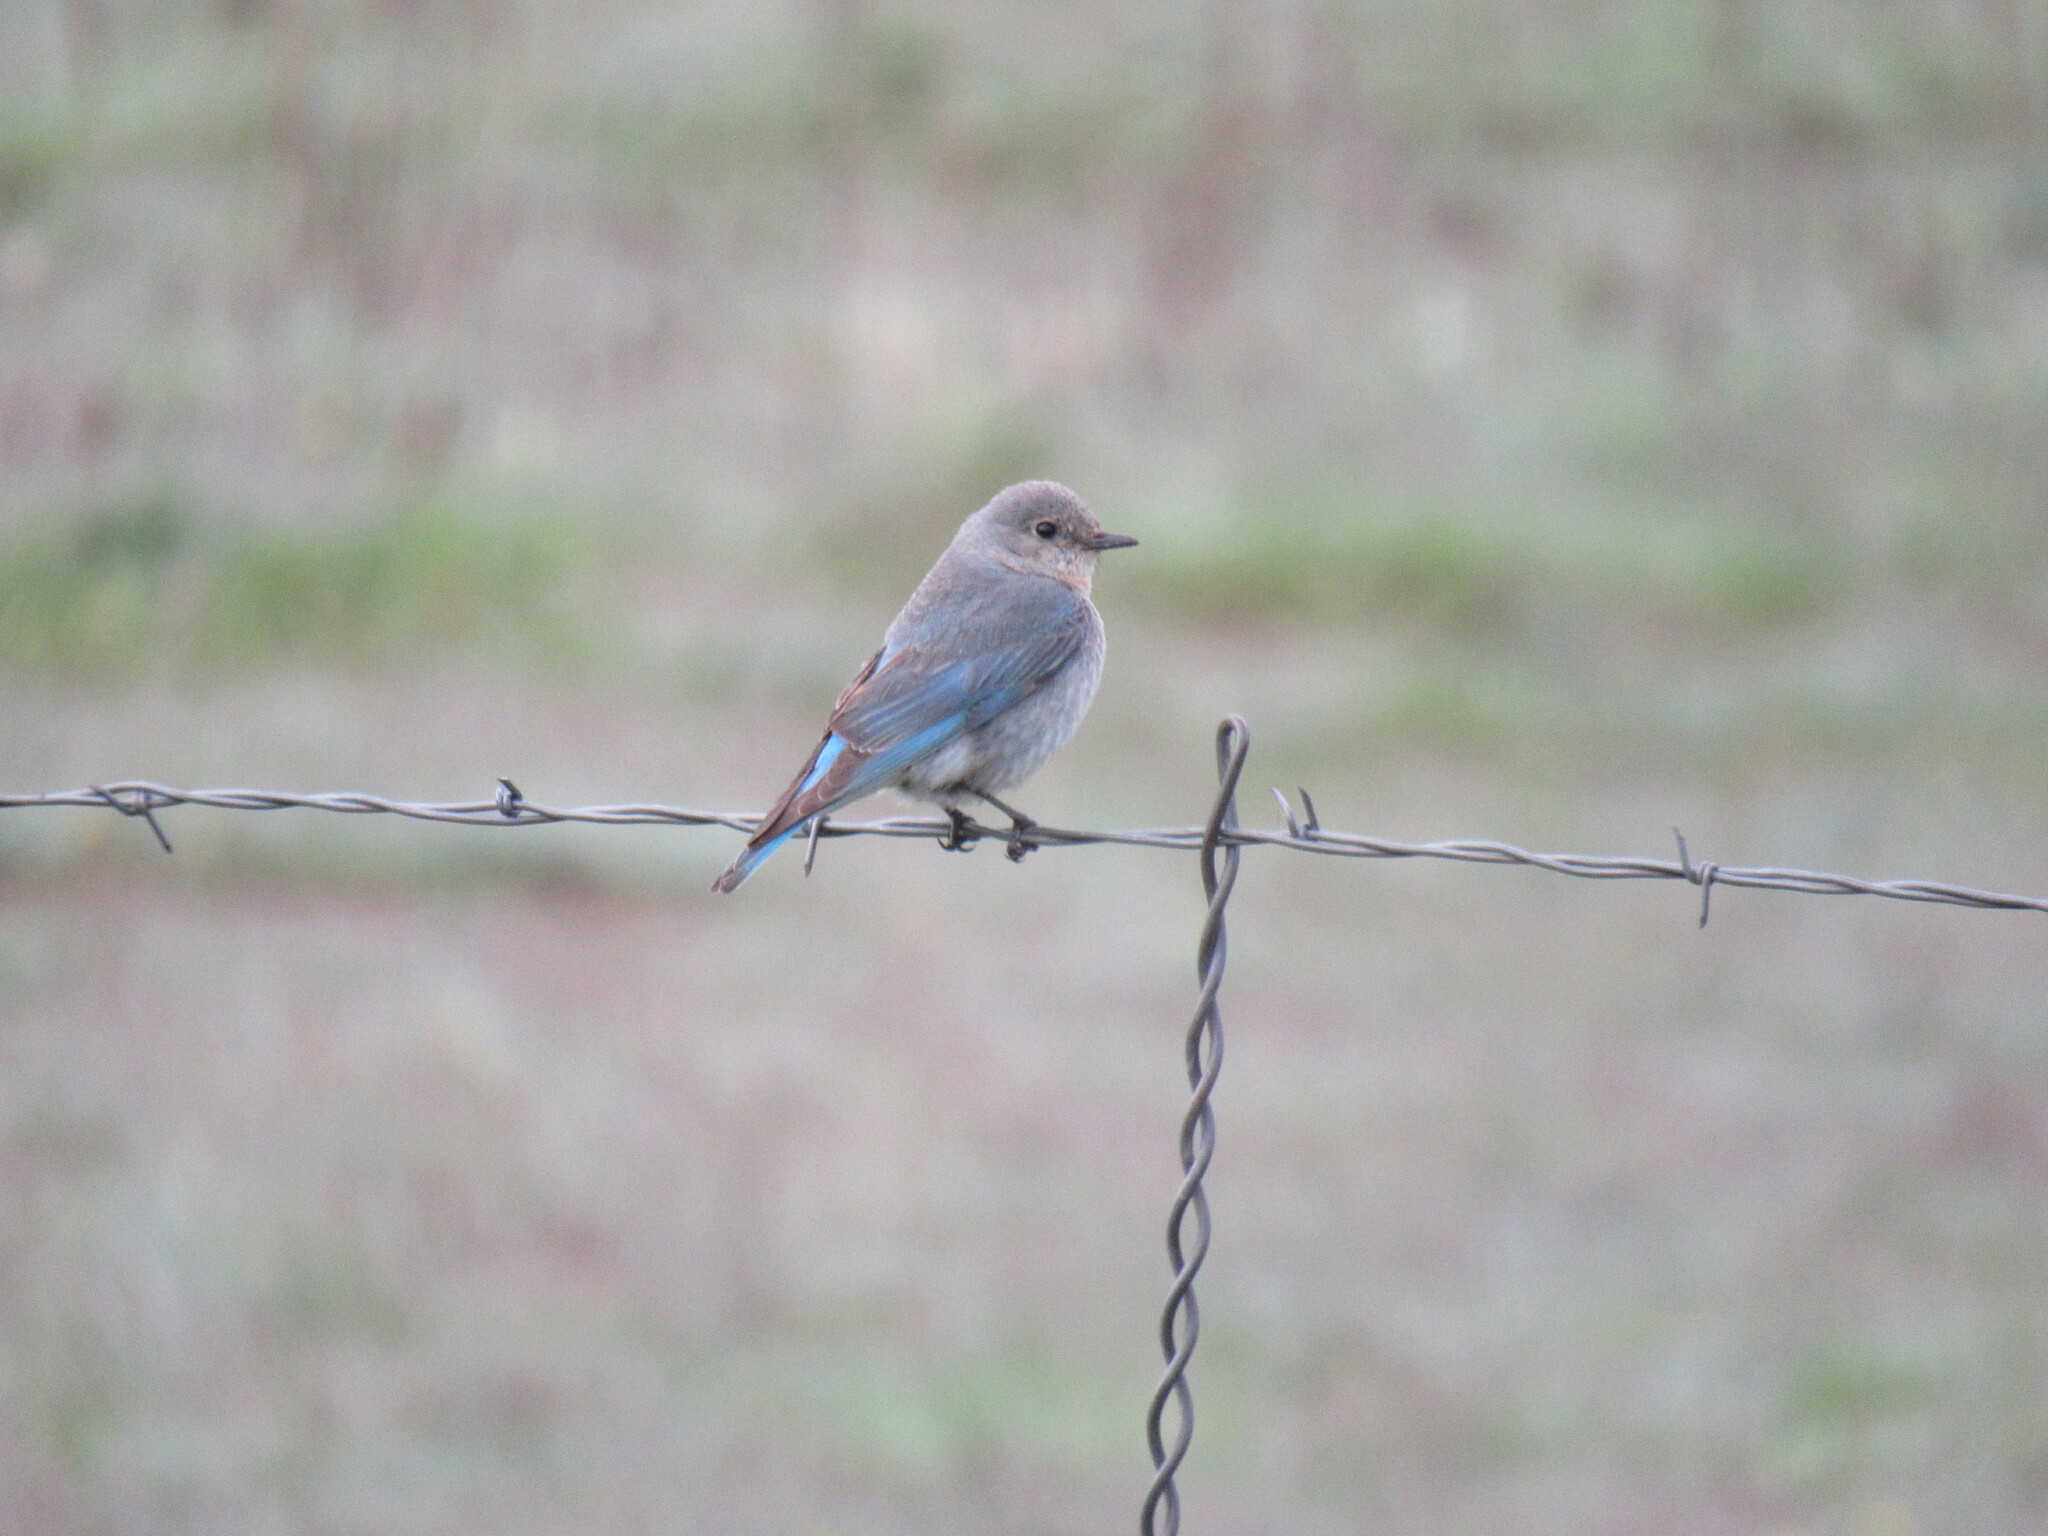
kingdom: Animalia
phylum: Chordata
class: Aves
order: Passeriformes
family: Turdidae
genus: Sialia
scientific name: Sialia currucoides
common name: Mountain bluebird
